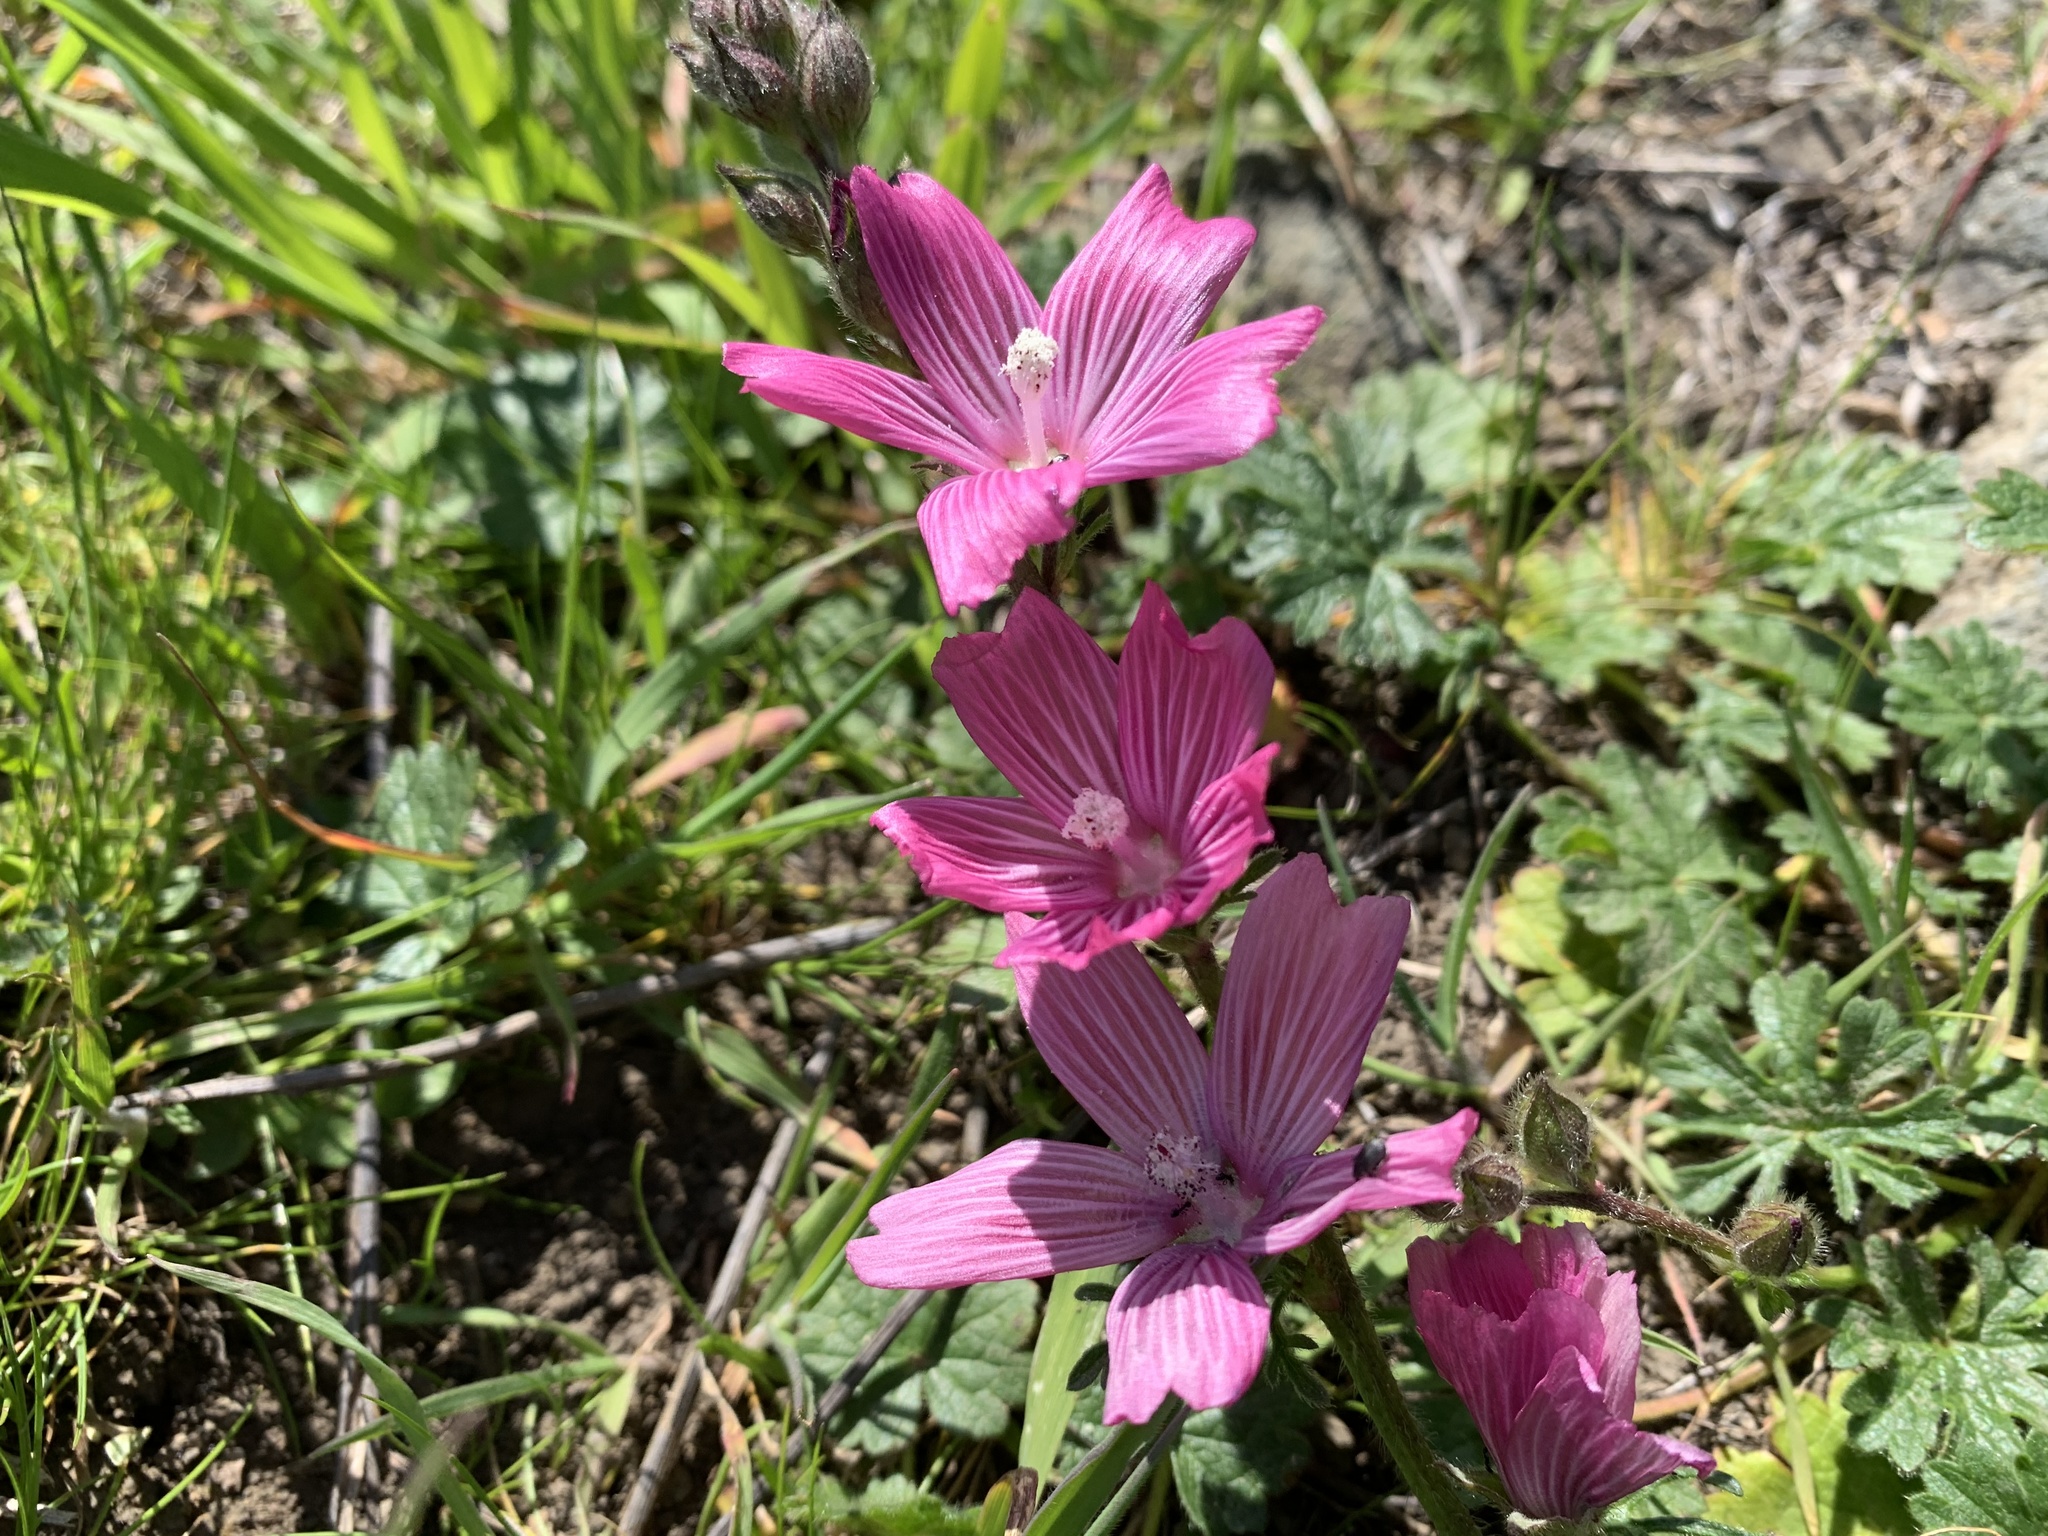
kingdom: Plantae
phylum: Tracheophyta
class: Magnoliopsida
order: Malvales
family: Malvaceae
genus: Sidalcea
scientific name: Sidalcea malviflora
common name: Greek mallow
